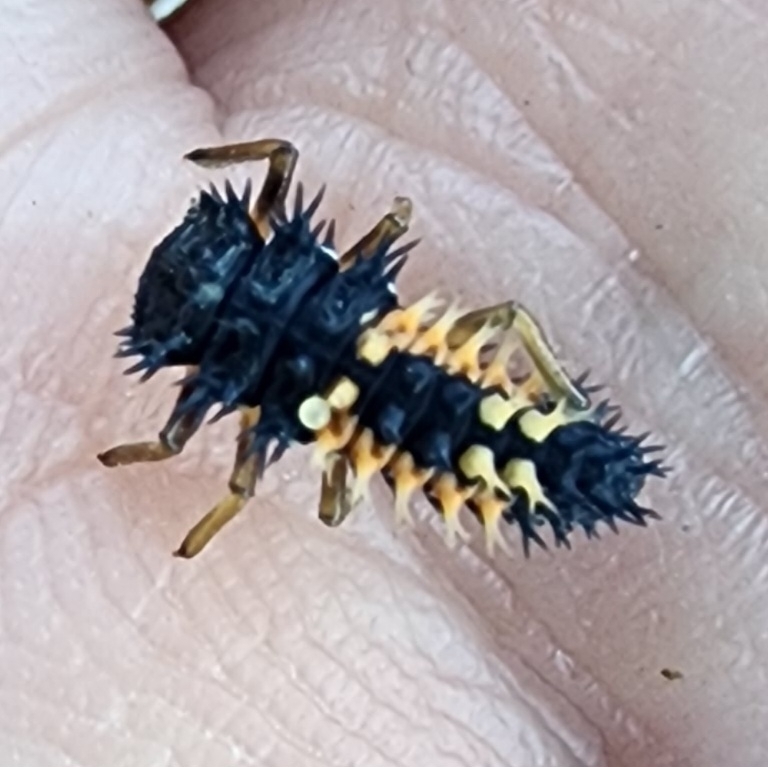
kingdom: Animalia
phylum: Arthropoda
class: Insecta
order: Coleoptera
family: Coccinellidae
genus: Harmonia
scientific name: Harmonia axyridis
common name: Harlequin ladybird
